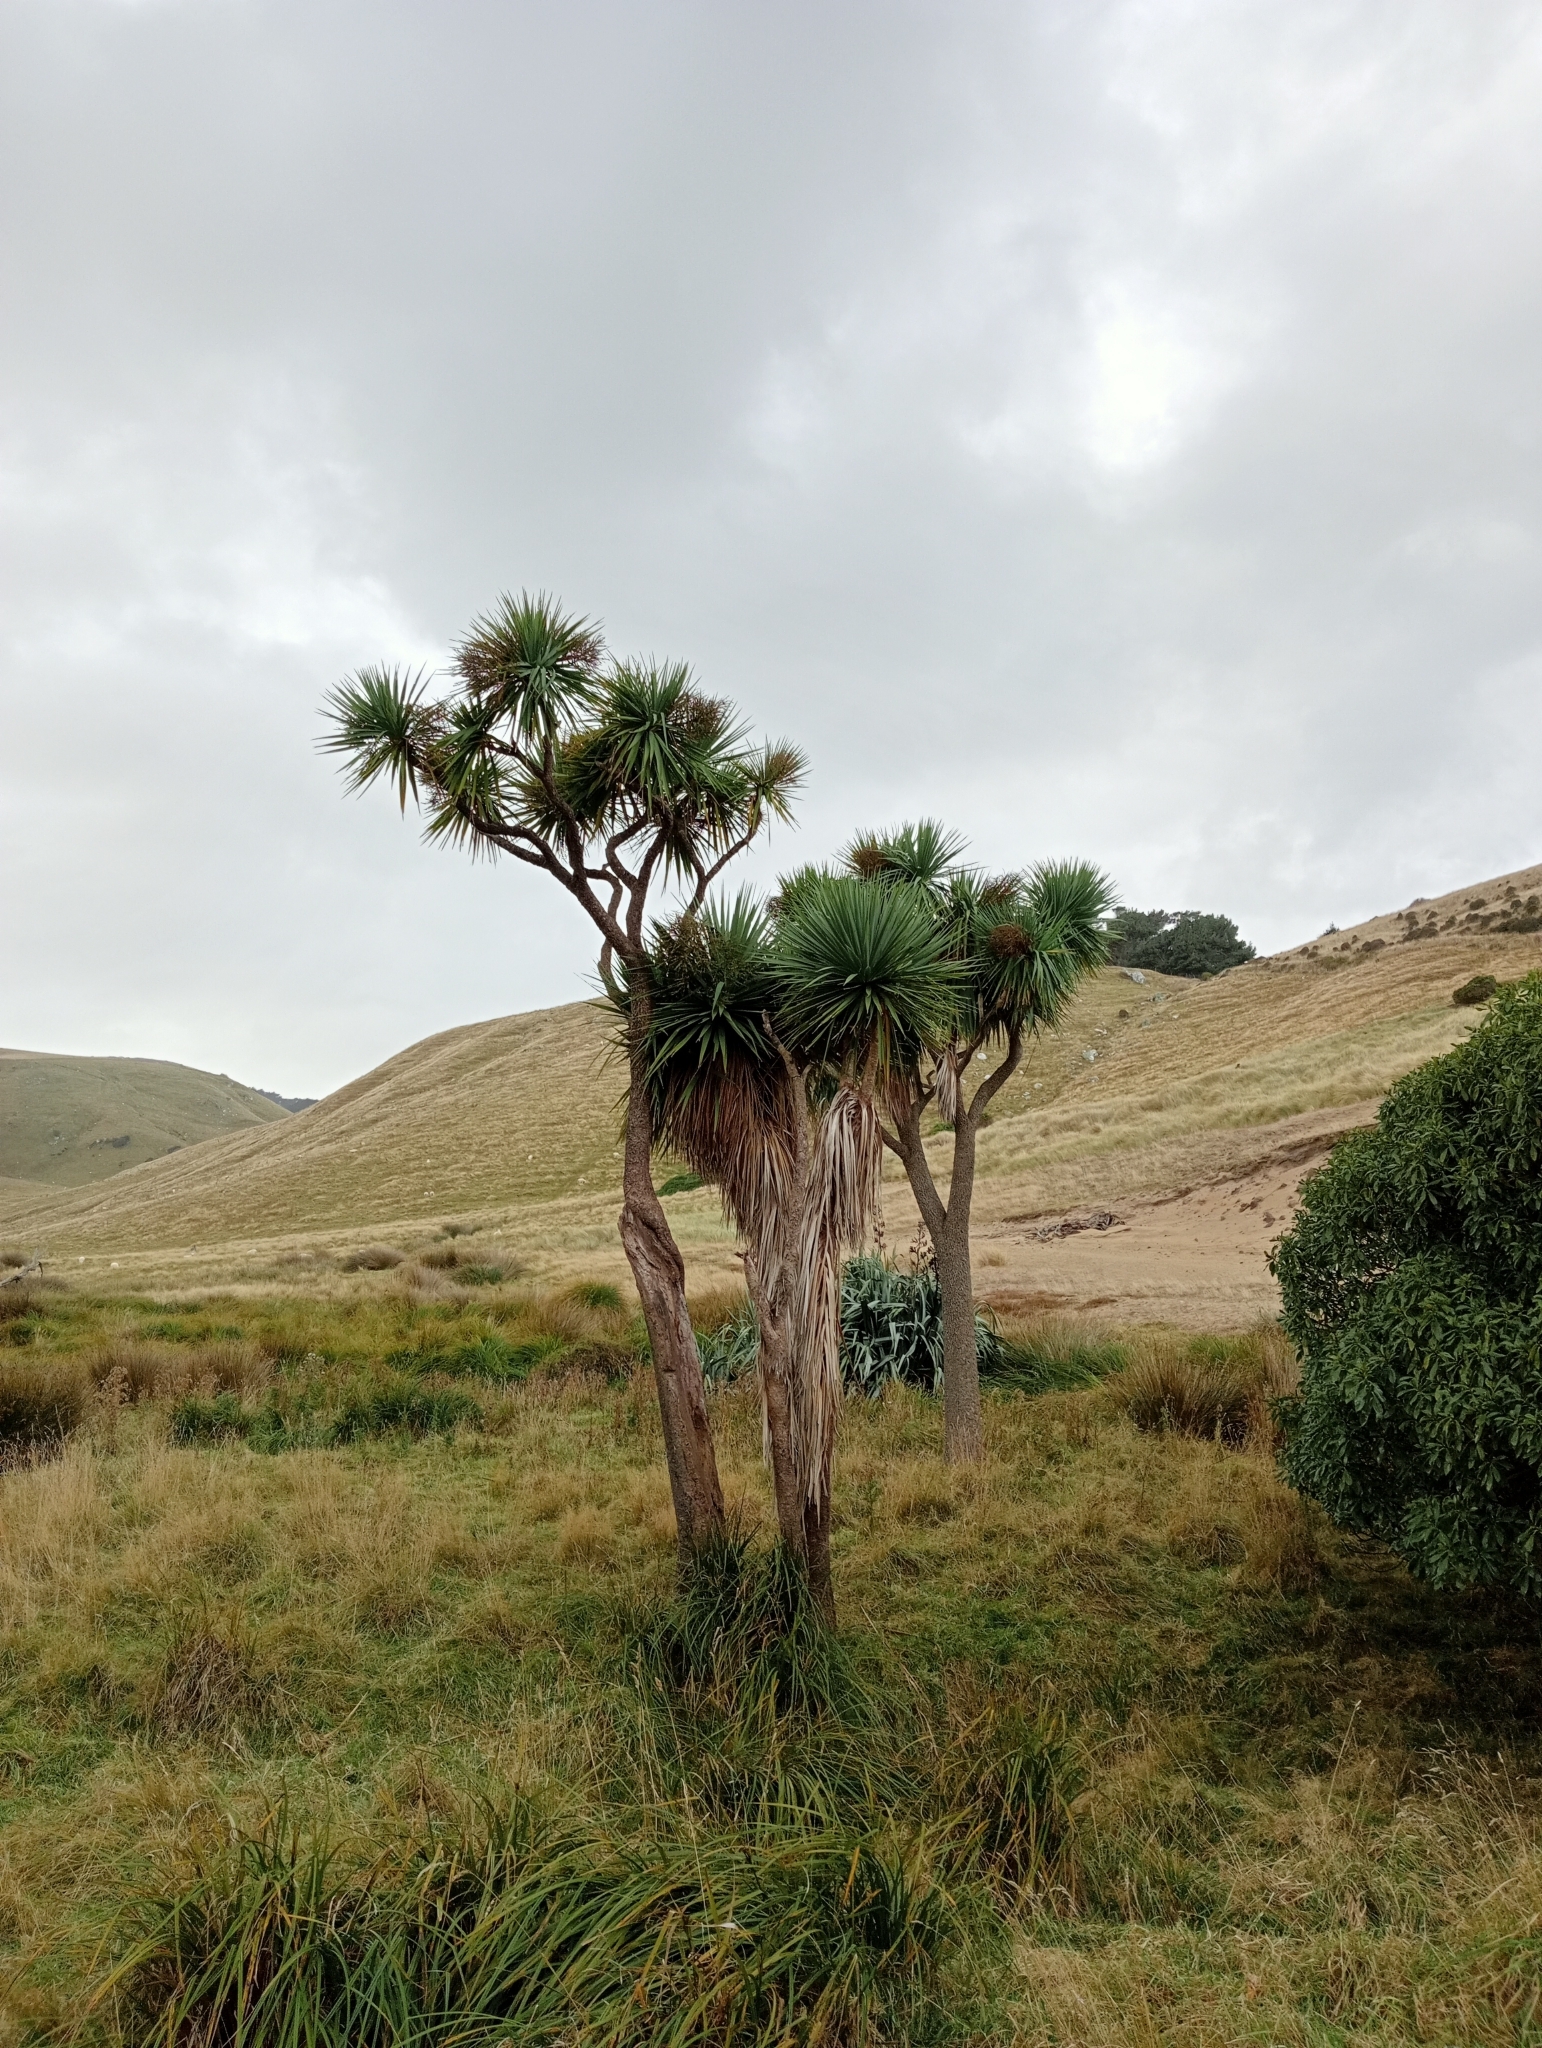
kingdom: Plantae
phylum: Tracheophyta
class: Liliopsida
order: Asparagales
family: Asparagaceae
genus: Cordyline
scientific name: Cordyline australis
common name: Cabbage-palm
